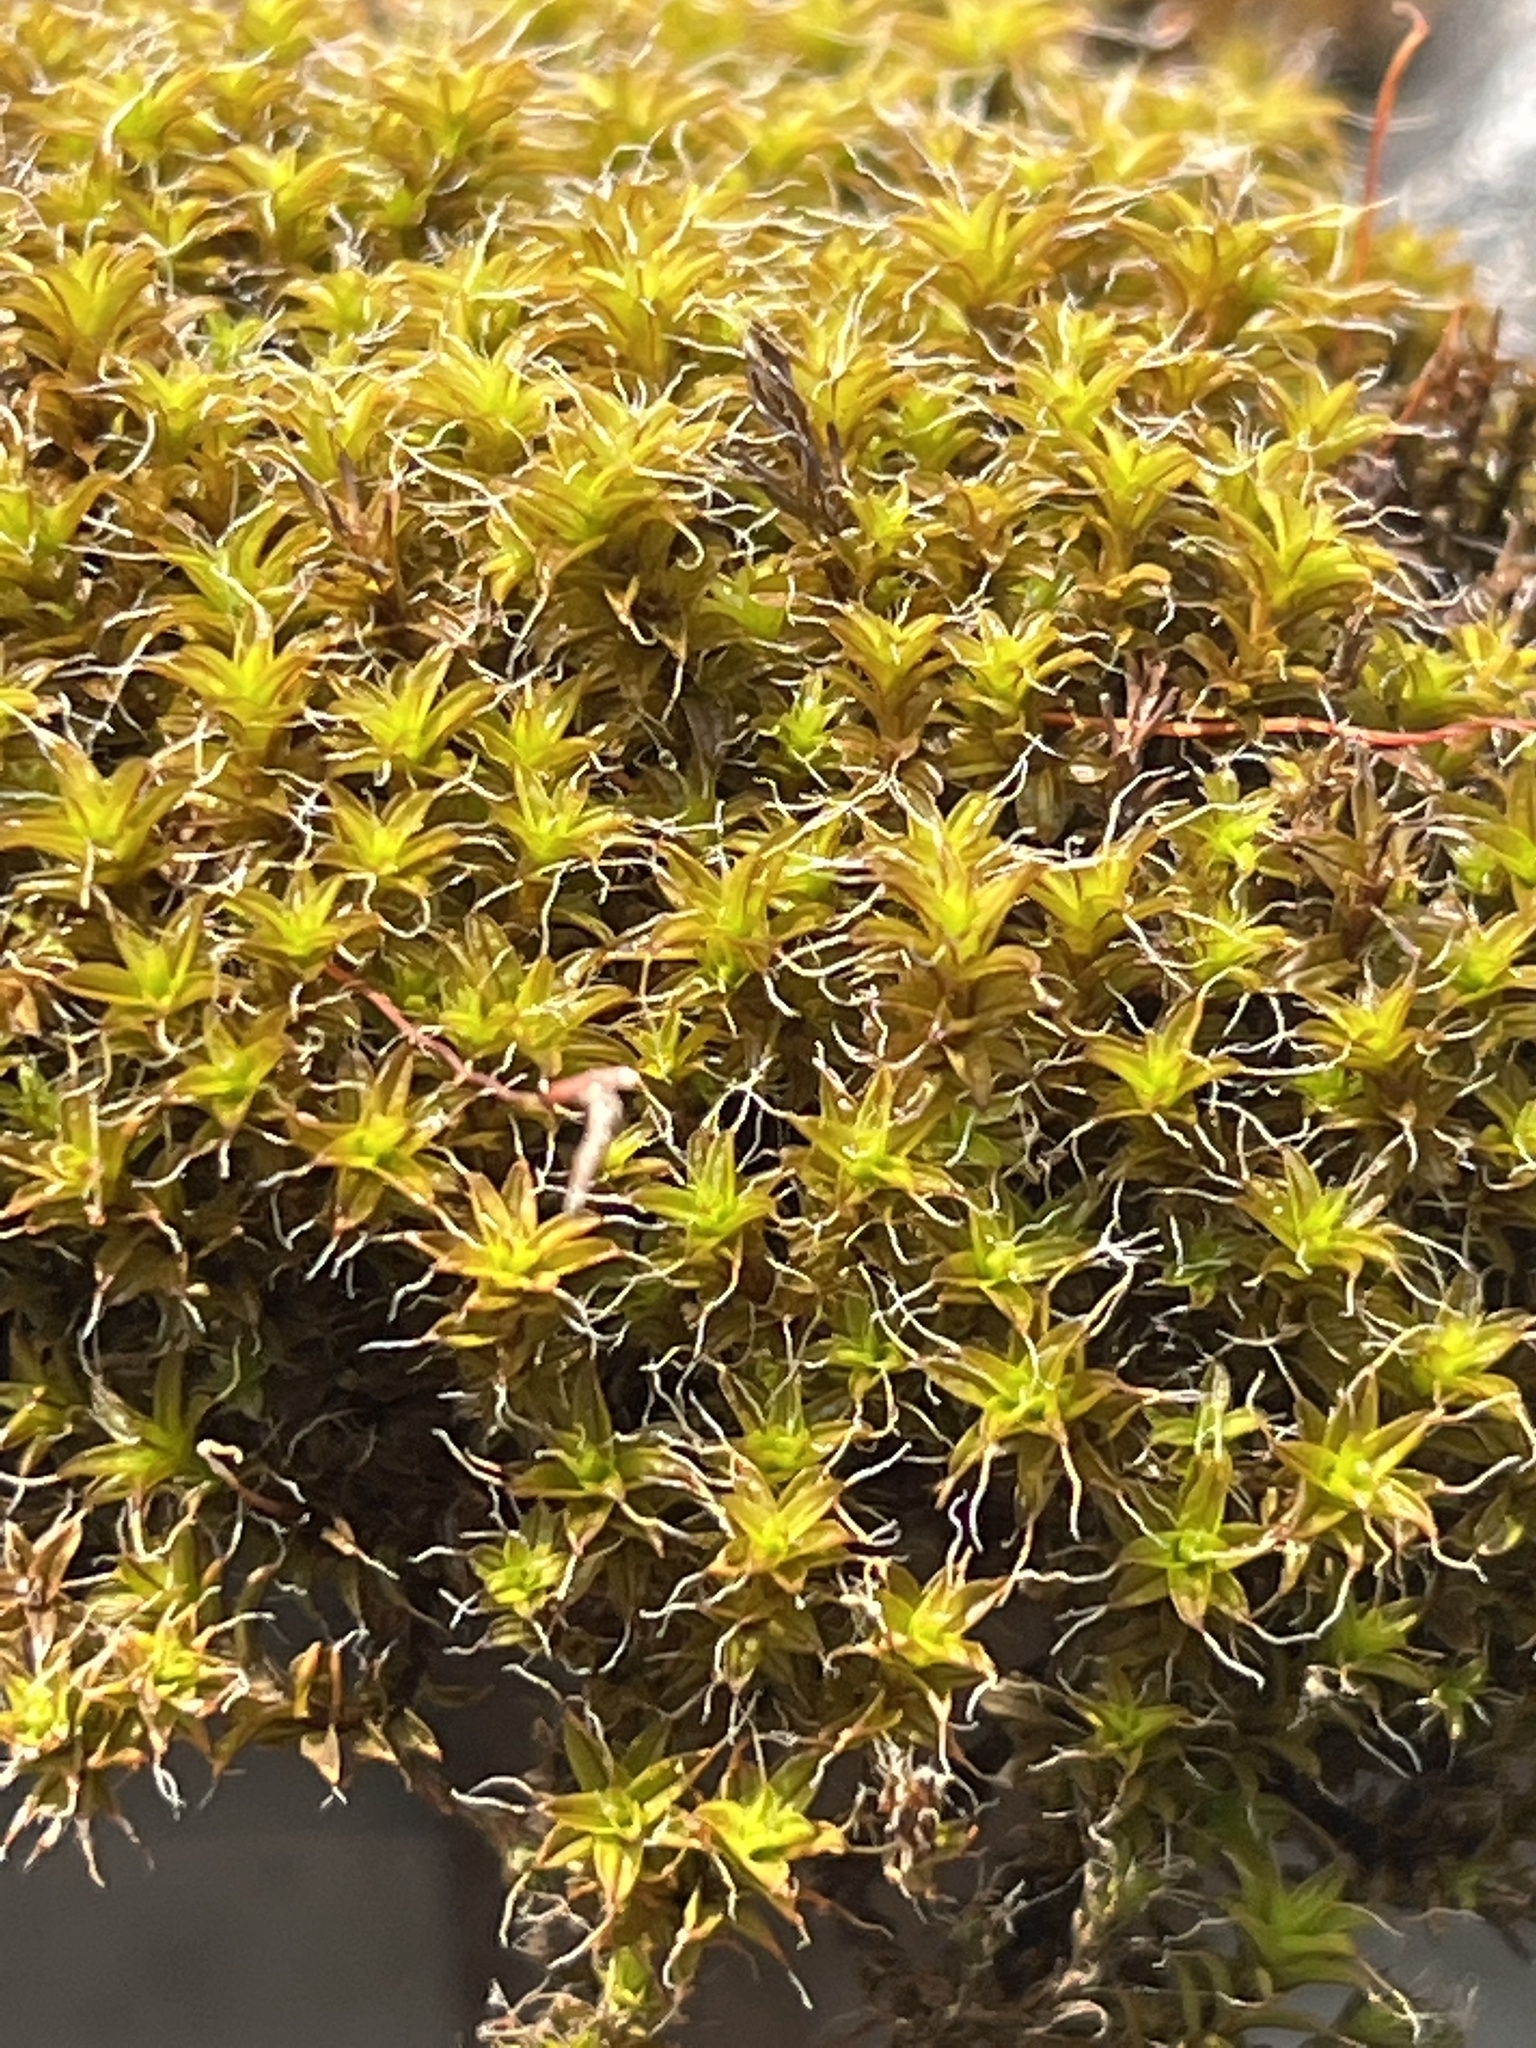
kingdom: Plantae
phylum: Bryophyta
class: Bryopsida
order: Pottiales
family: Pottiaceae
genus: Syntrichia
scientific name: Syntrichia ruralis
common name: Sidewalk screw moss
